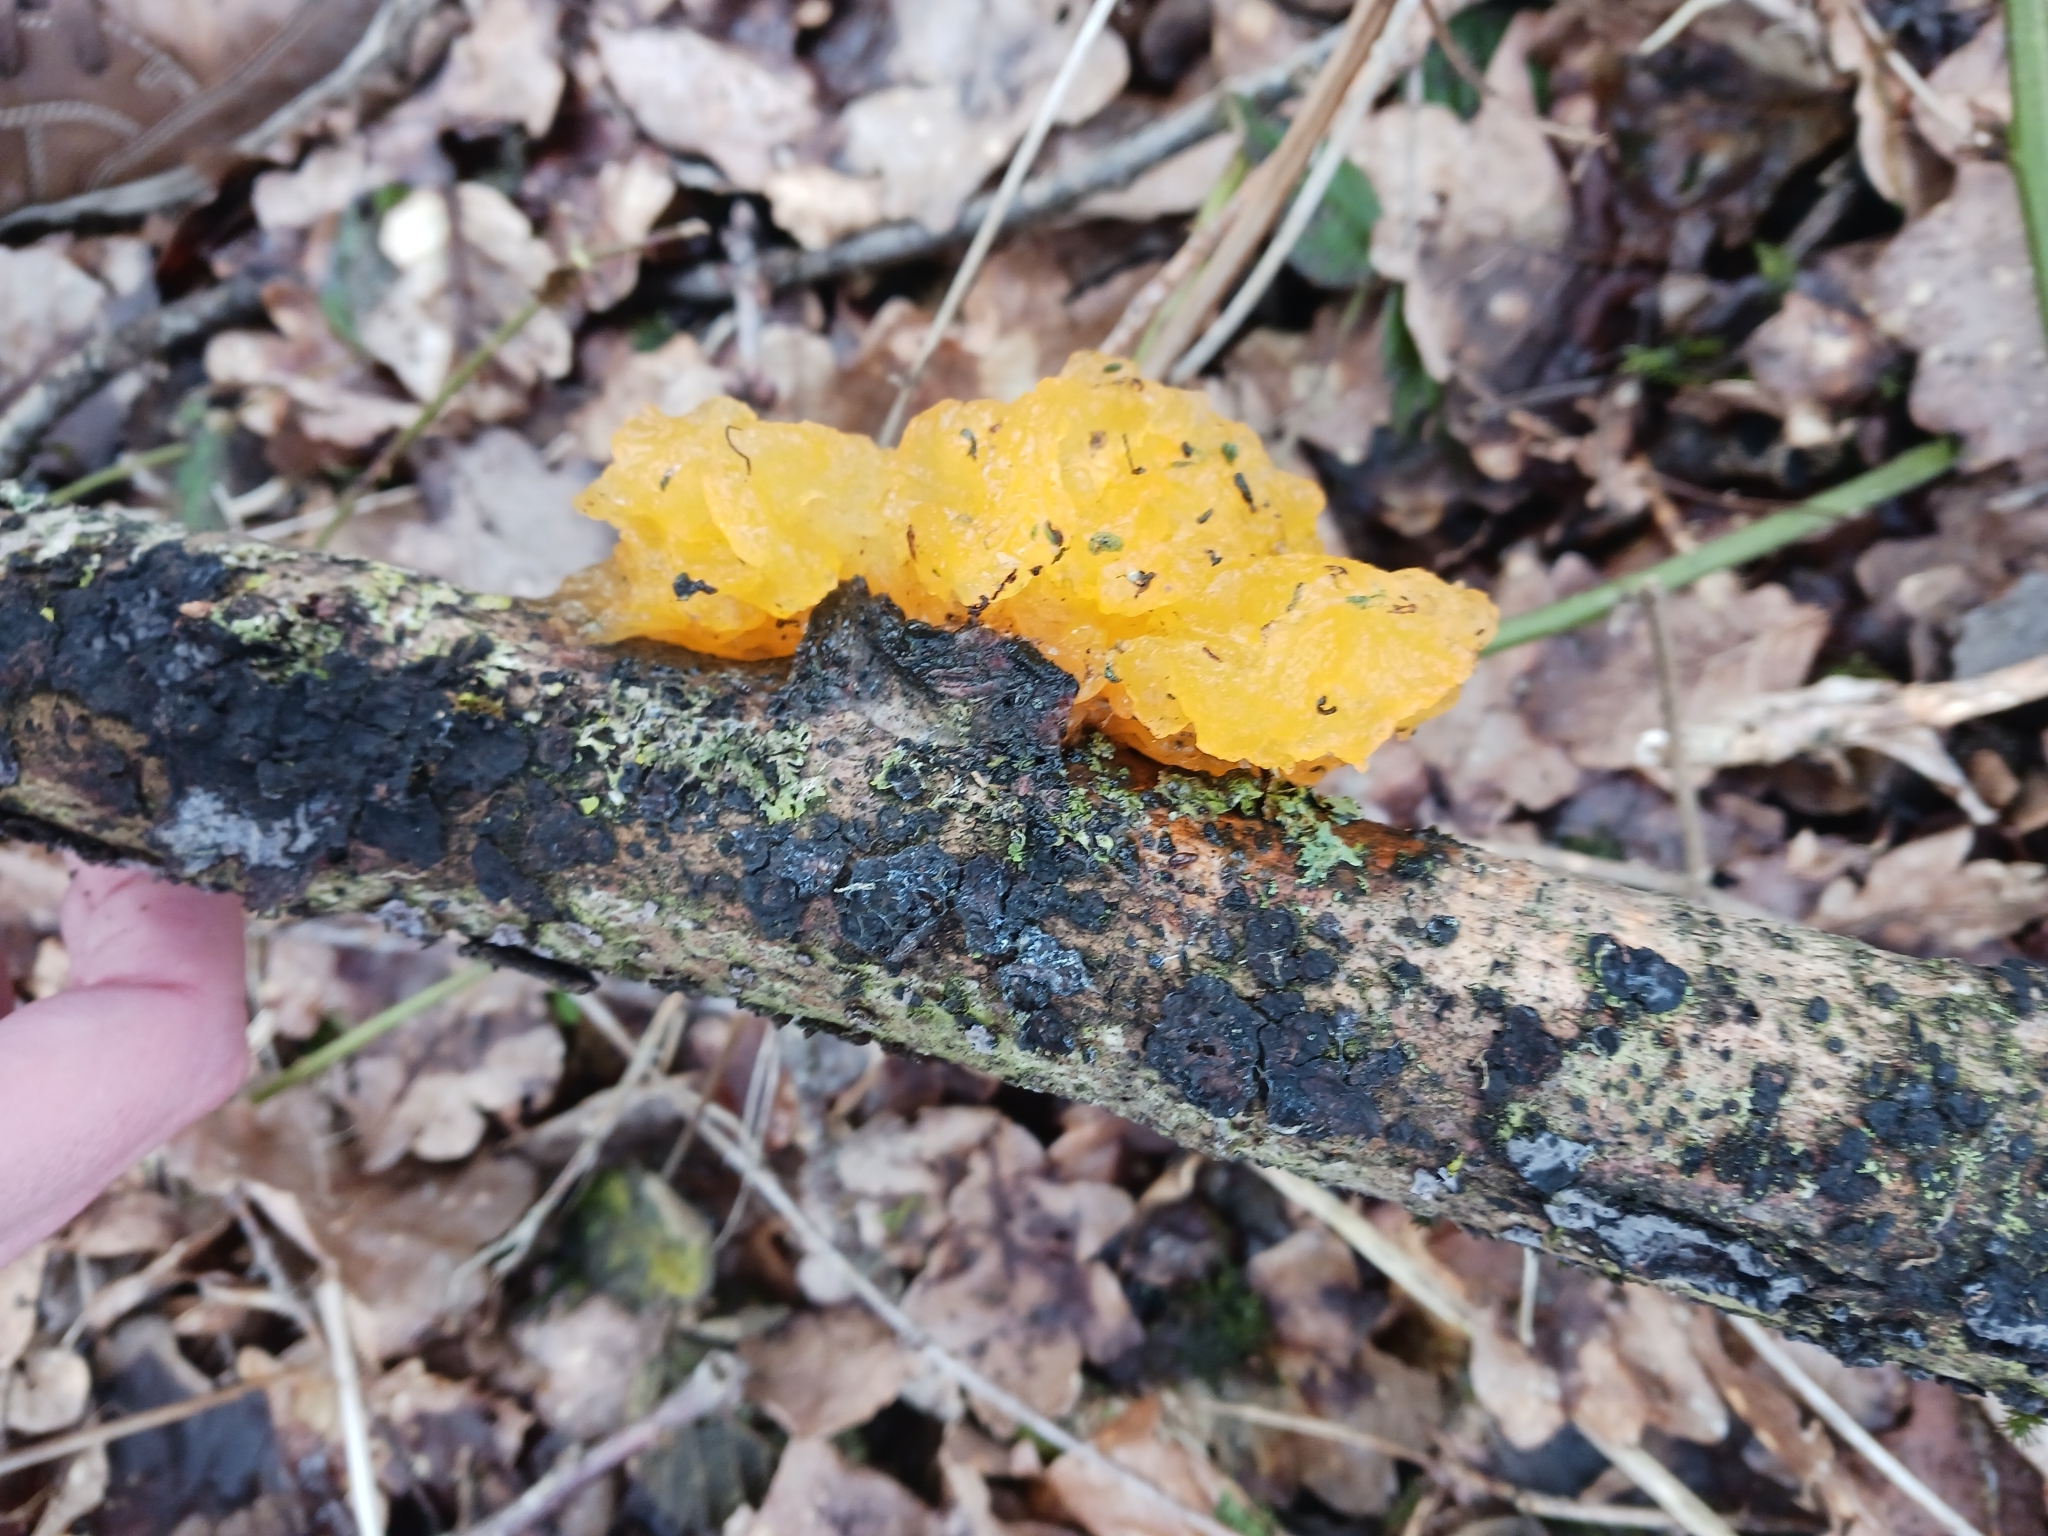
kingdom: Fungi
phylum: Basidiomycota
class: Tremellomycetes
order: Tremellales
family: Tremellaceae
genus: Tremella
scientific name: Tremella mesenterica
